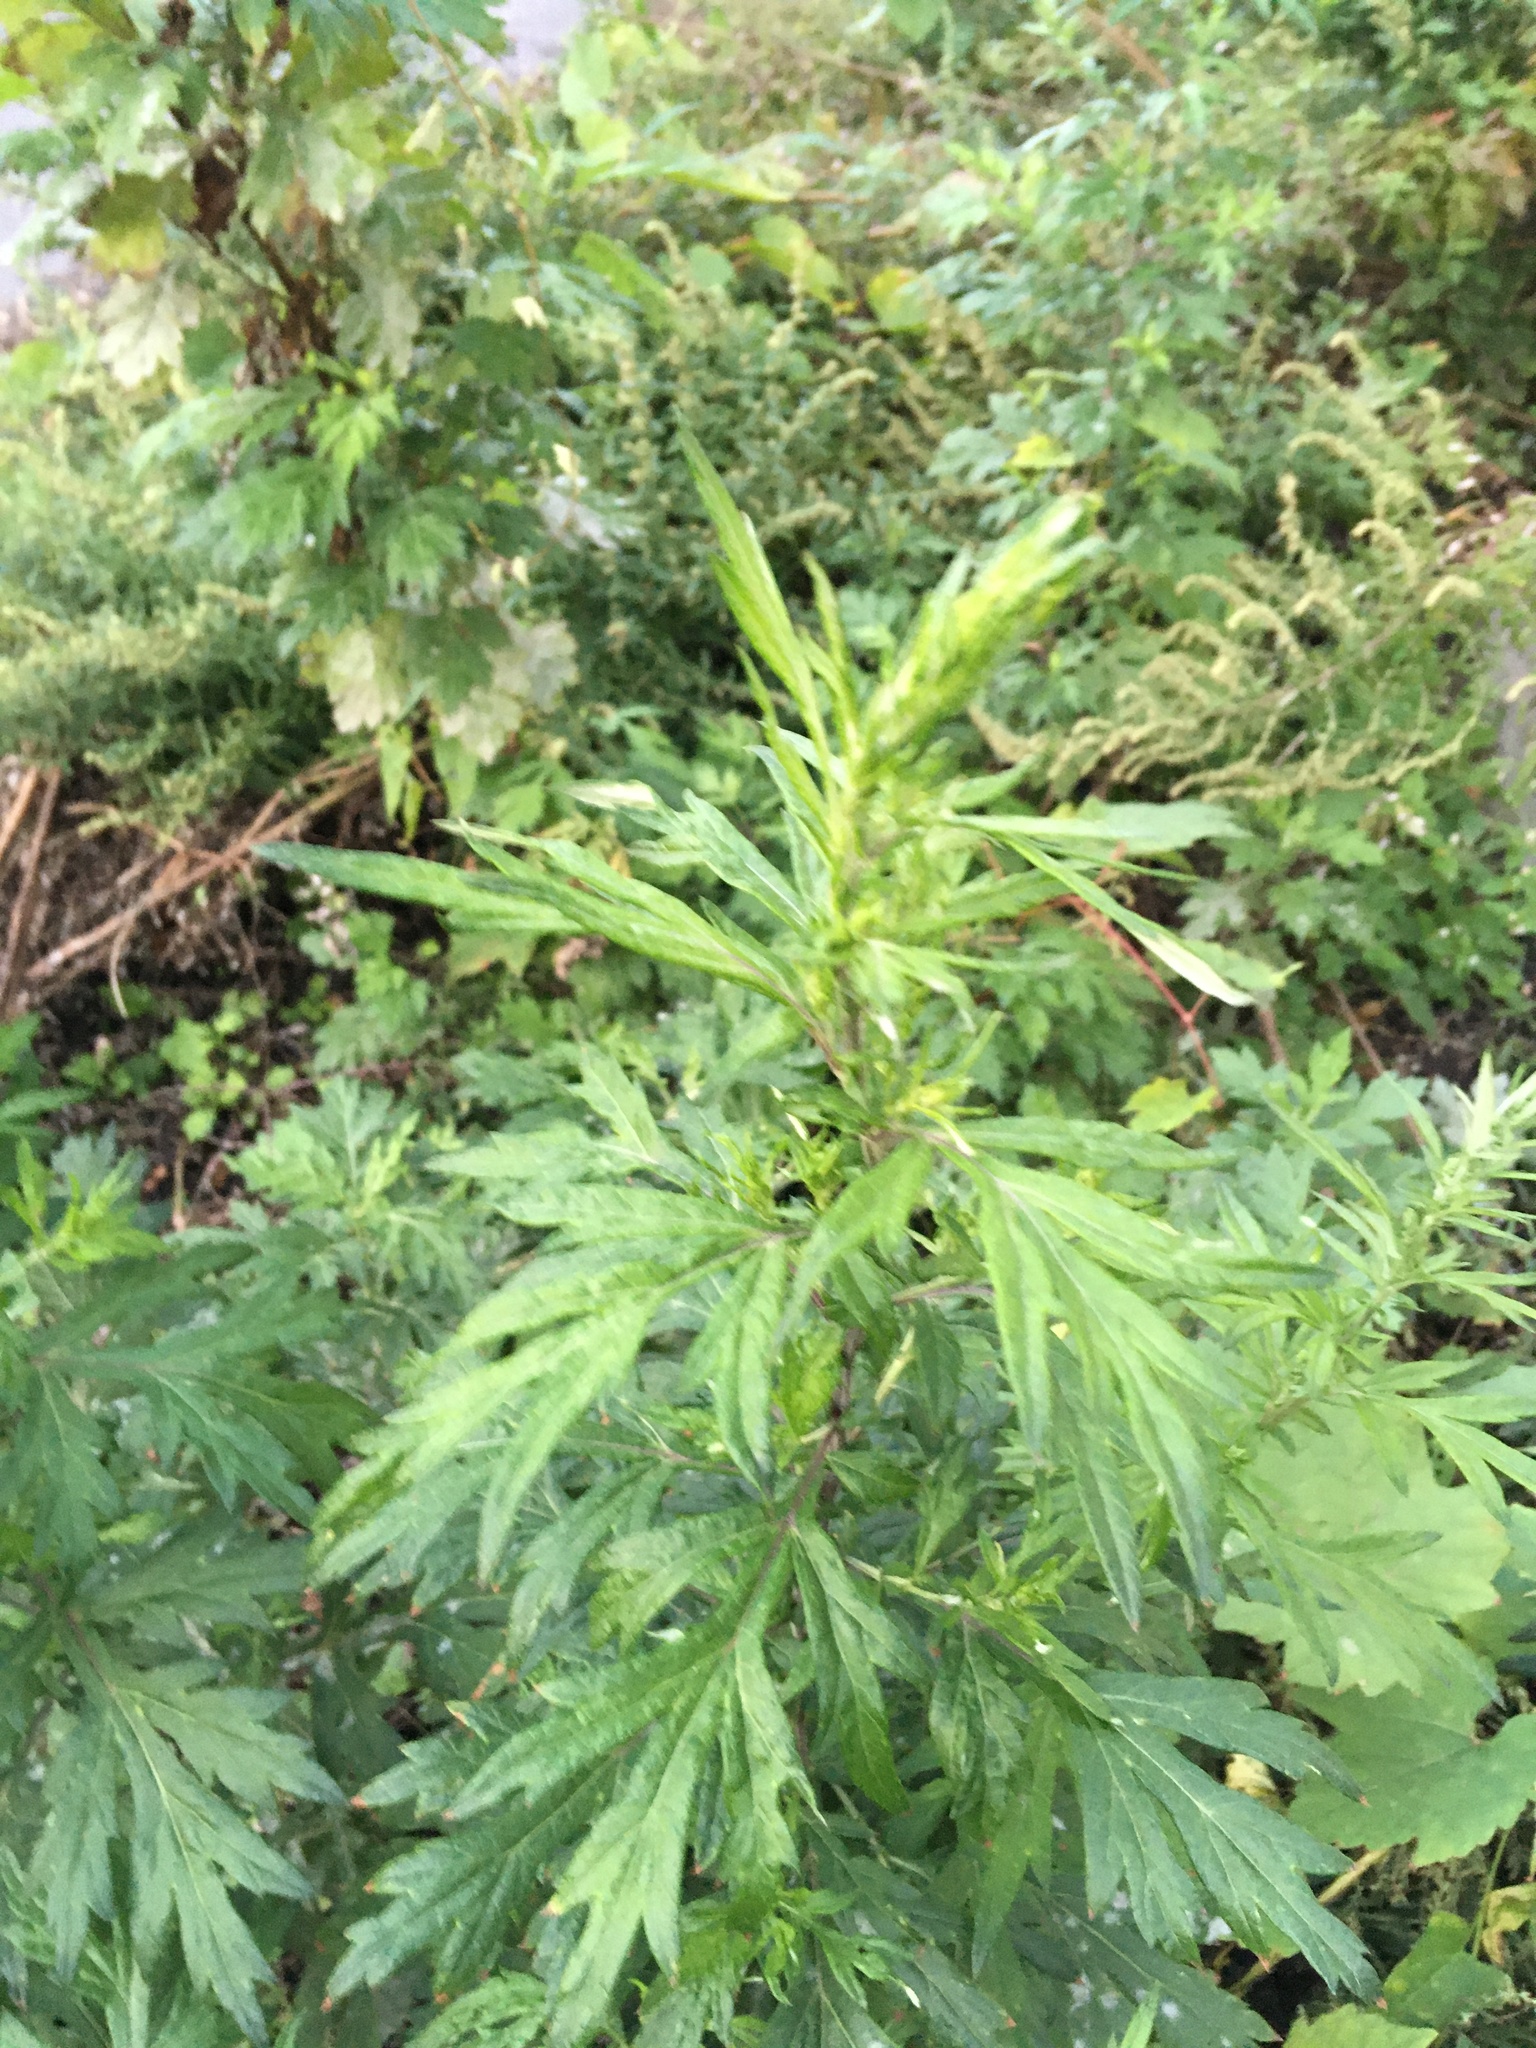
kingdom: Plantae
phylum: Tracheophyta
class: Magnoliopsida
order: Asterales
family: Asteraceae
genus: Artemisia
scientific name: Artemisia vulgaris
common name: Mugwort
